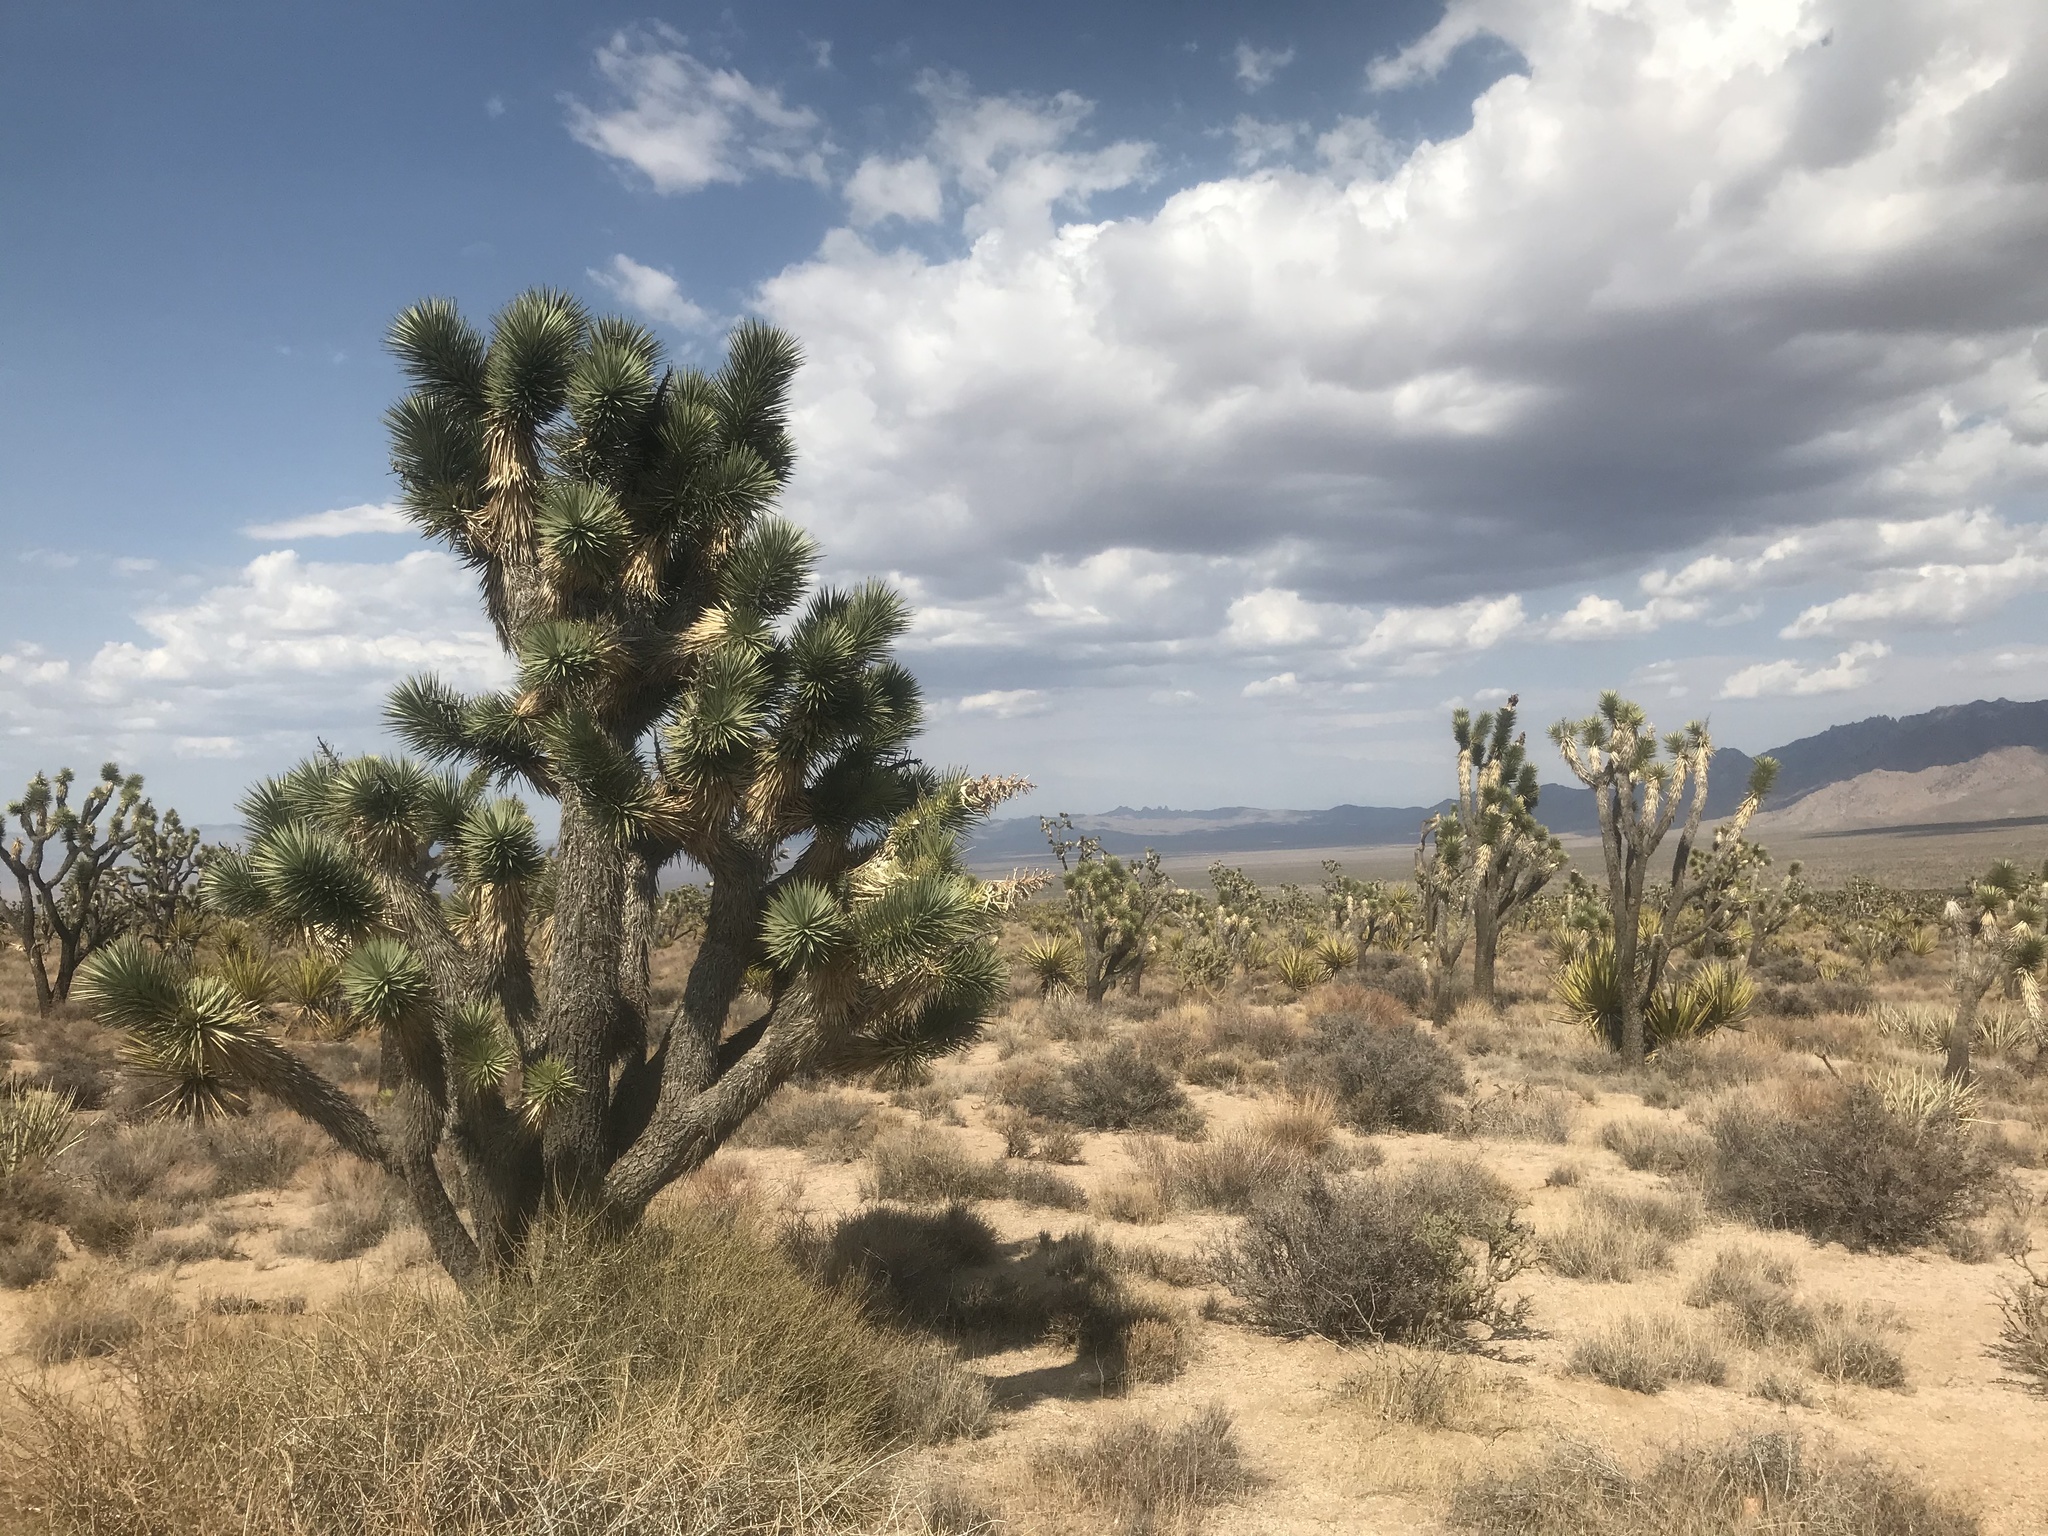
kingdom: Plantae
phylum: Tracheophyta
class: Liliopsida
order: Asparagales
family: Asparagaceae
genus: Yucca
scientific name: Yucca brevifolia
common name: Joshua tree
